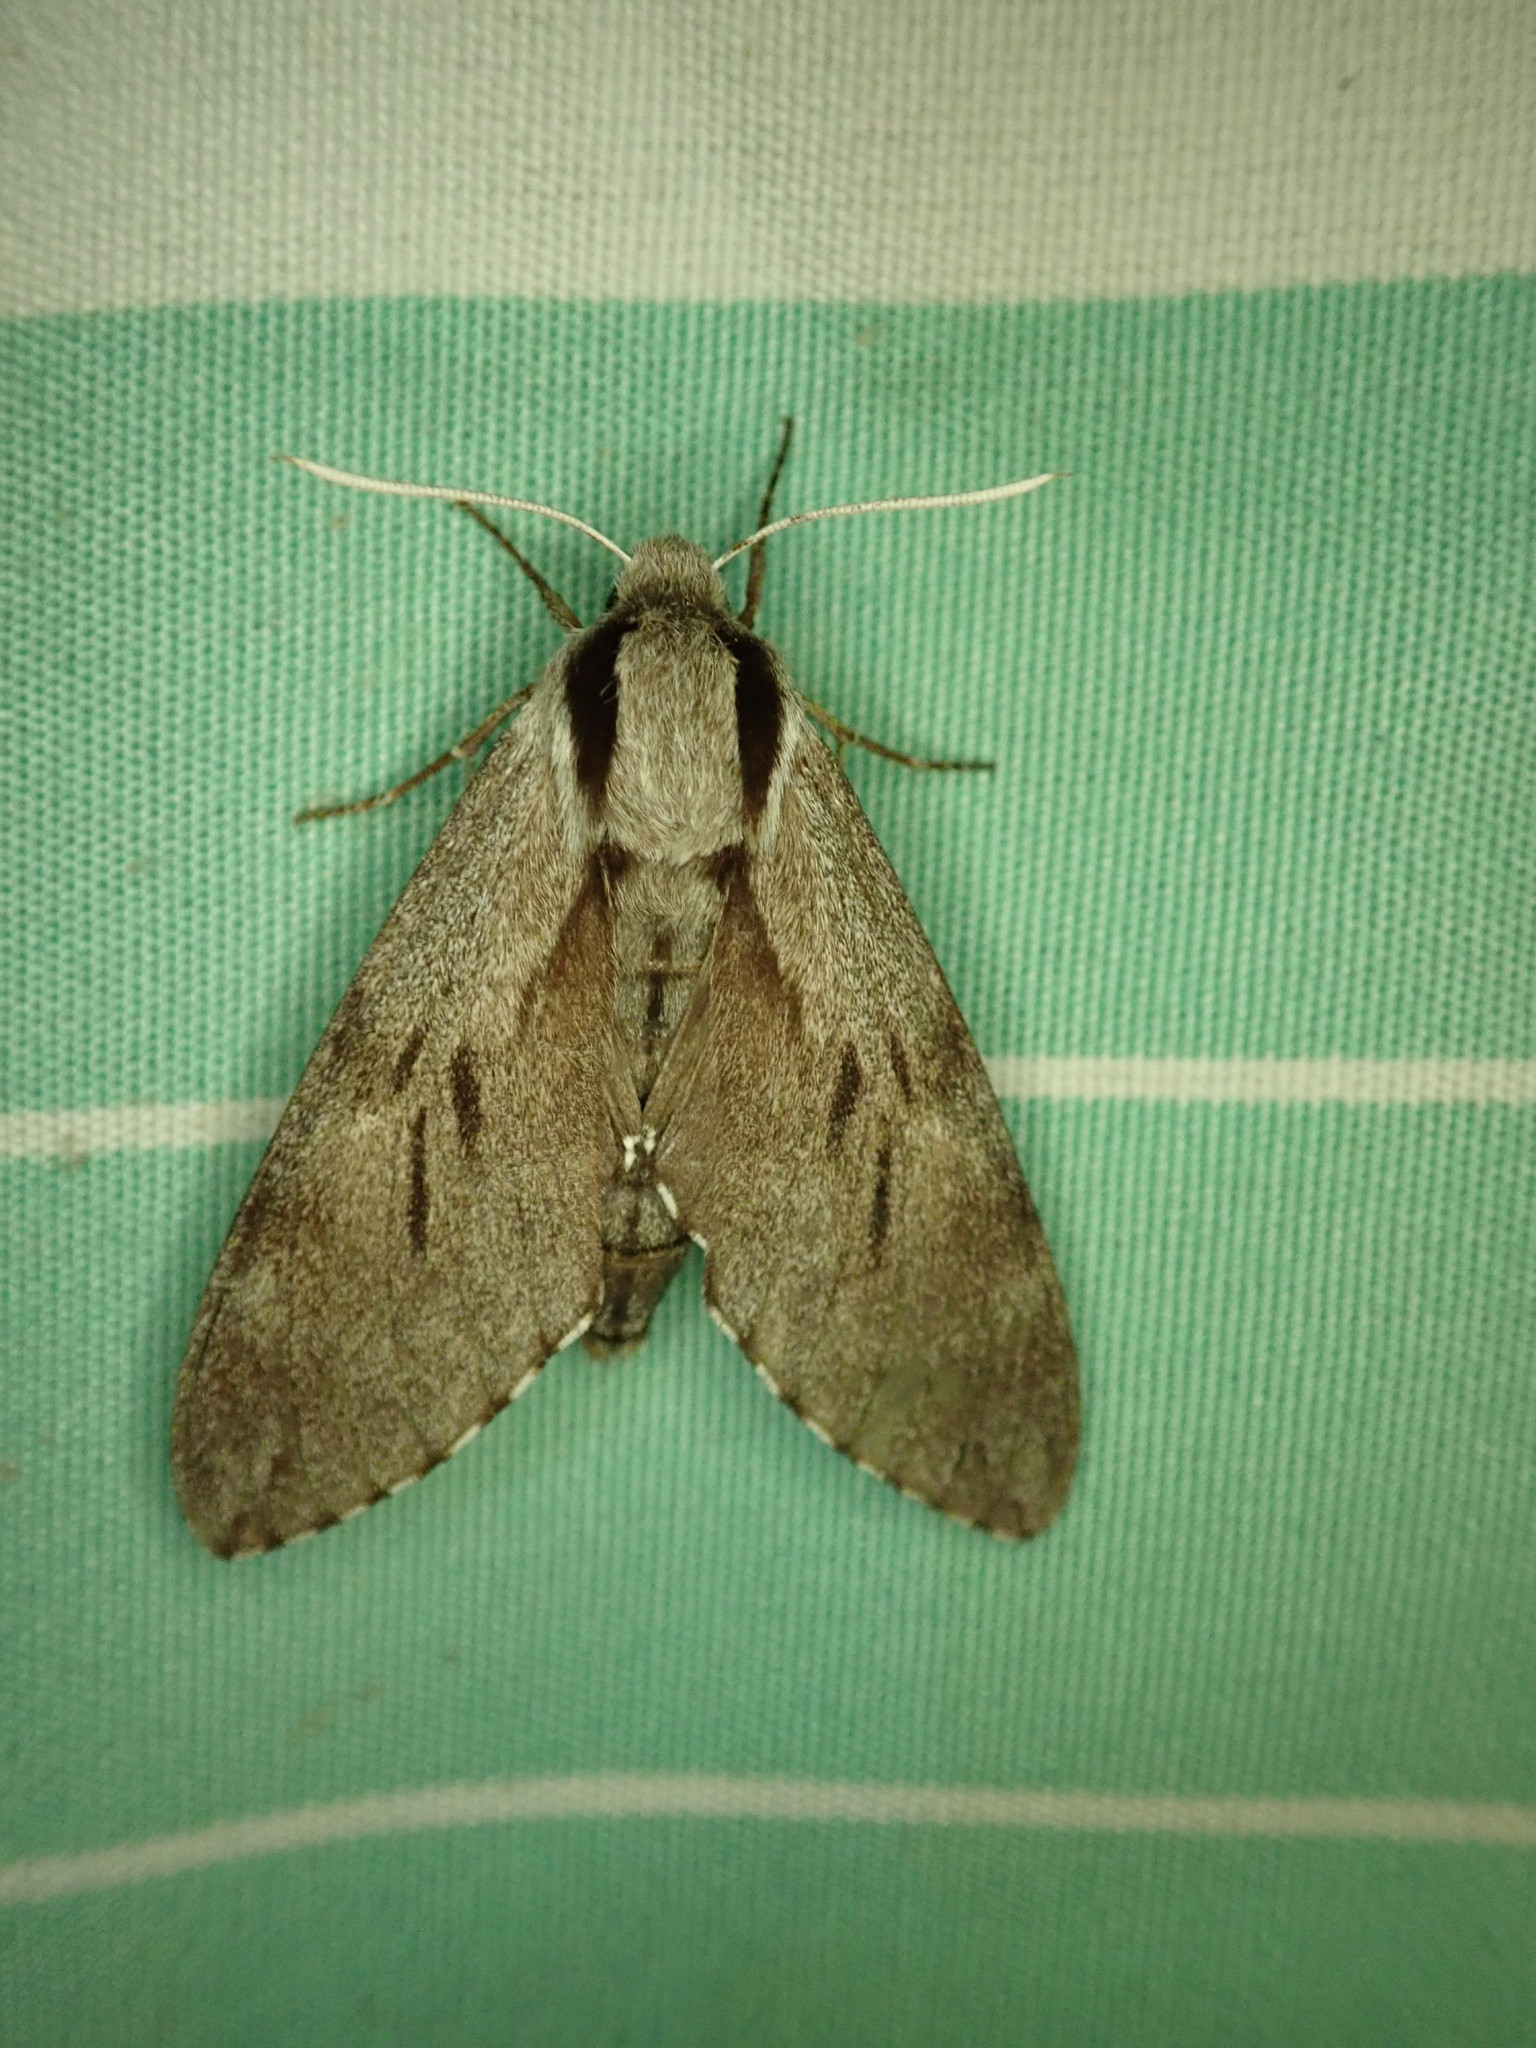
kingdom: Animalia
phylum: Arthropoda
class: Insecta
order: Lepidoptera
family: Sphingidae
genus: Sphinx
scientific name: Sphinx pinastri
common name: Pine hawk-moth
